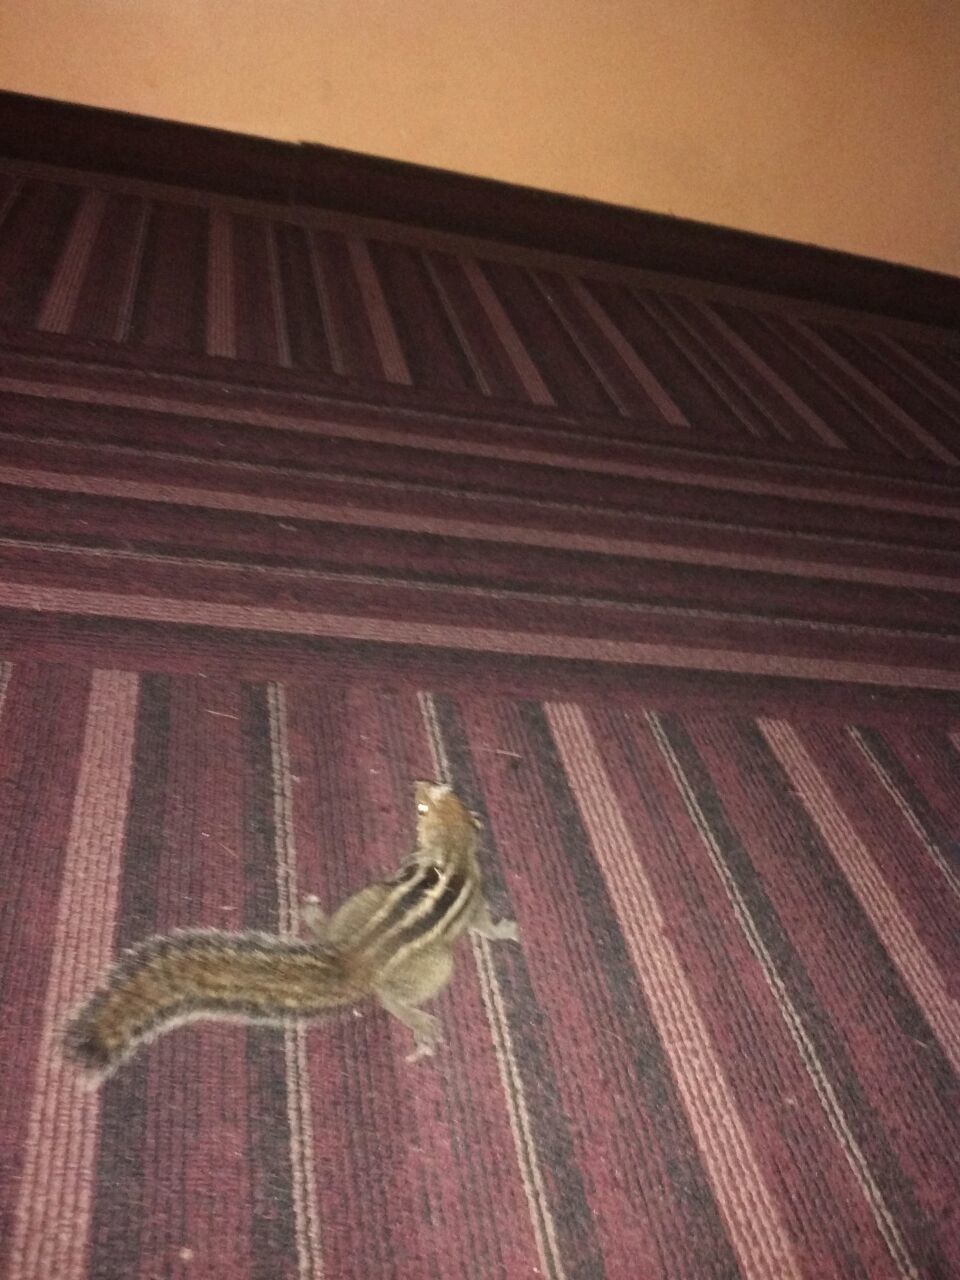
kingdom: Animalia
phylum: Chordata
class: Mammalia
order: Rodentia
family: Sciuridae
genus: Funambulus
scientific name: Funambulus tristriatus
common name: Jungle palm squirrel
